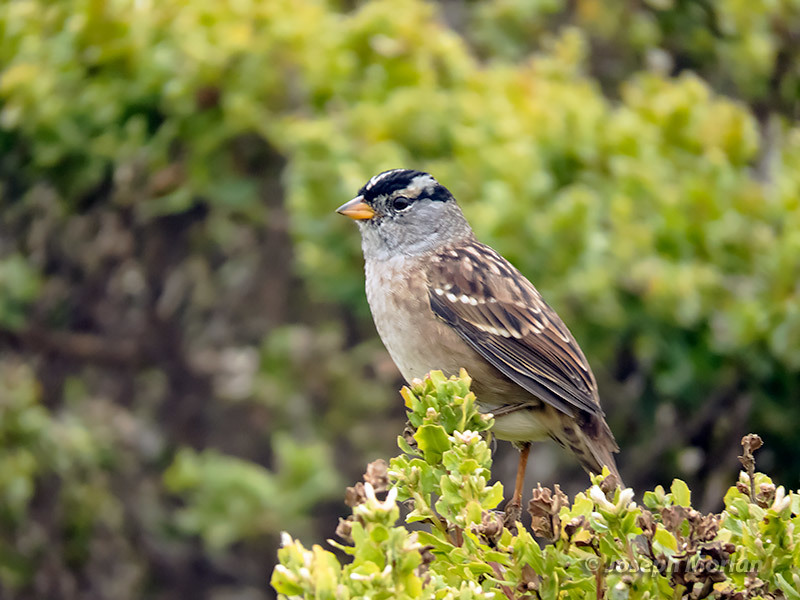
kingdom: Animalia
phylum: Chordata
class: Aves
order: Passeriformes
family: Passerellidae
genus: Zonotrichia
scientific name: Zonotrichia leucophrys
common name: White-crowned sparrow
